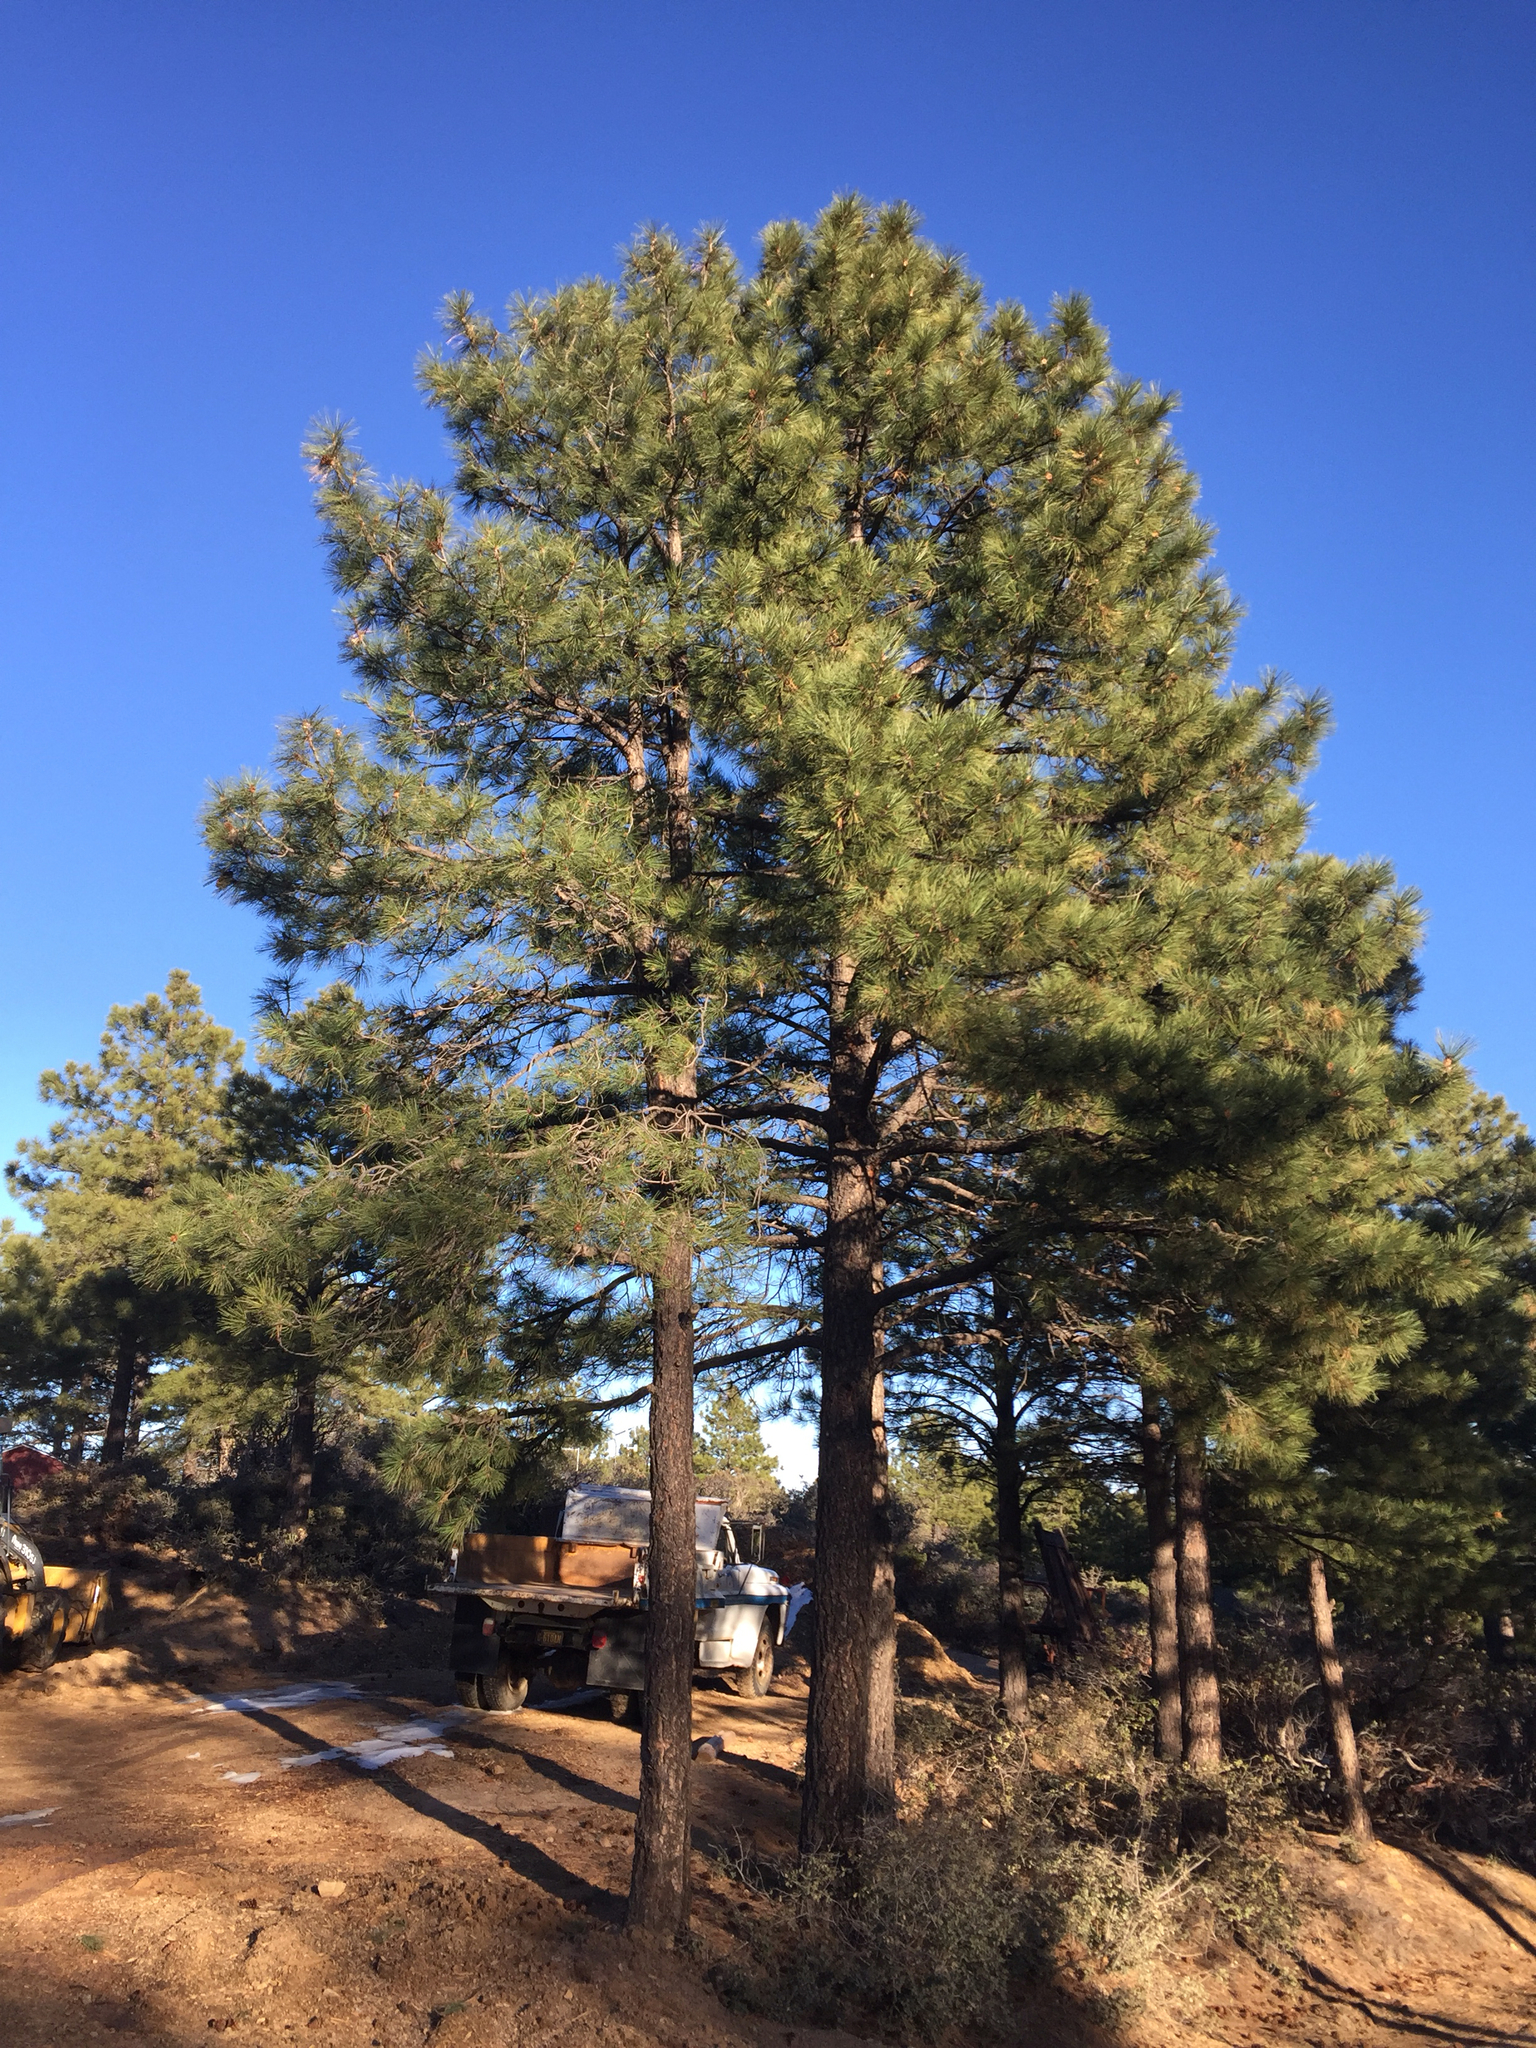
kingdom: Plantae
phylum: Tracheophyta
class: Pinopsida
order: Pinales
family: Pinaceae
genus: Pinus
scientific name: Pinus ponderosa
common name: Western yellow-pine
